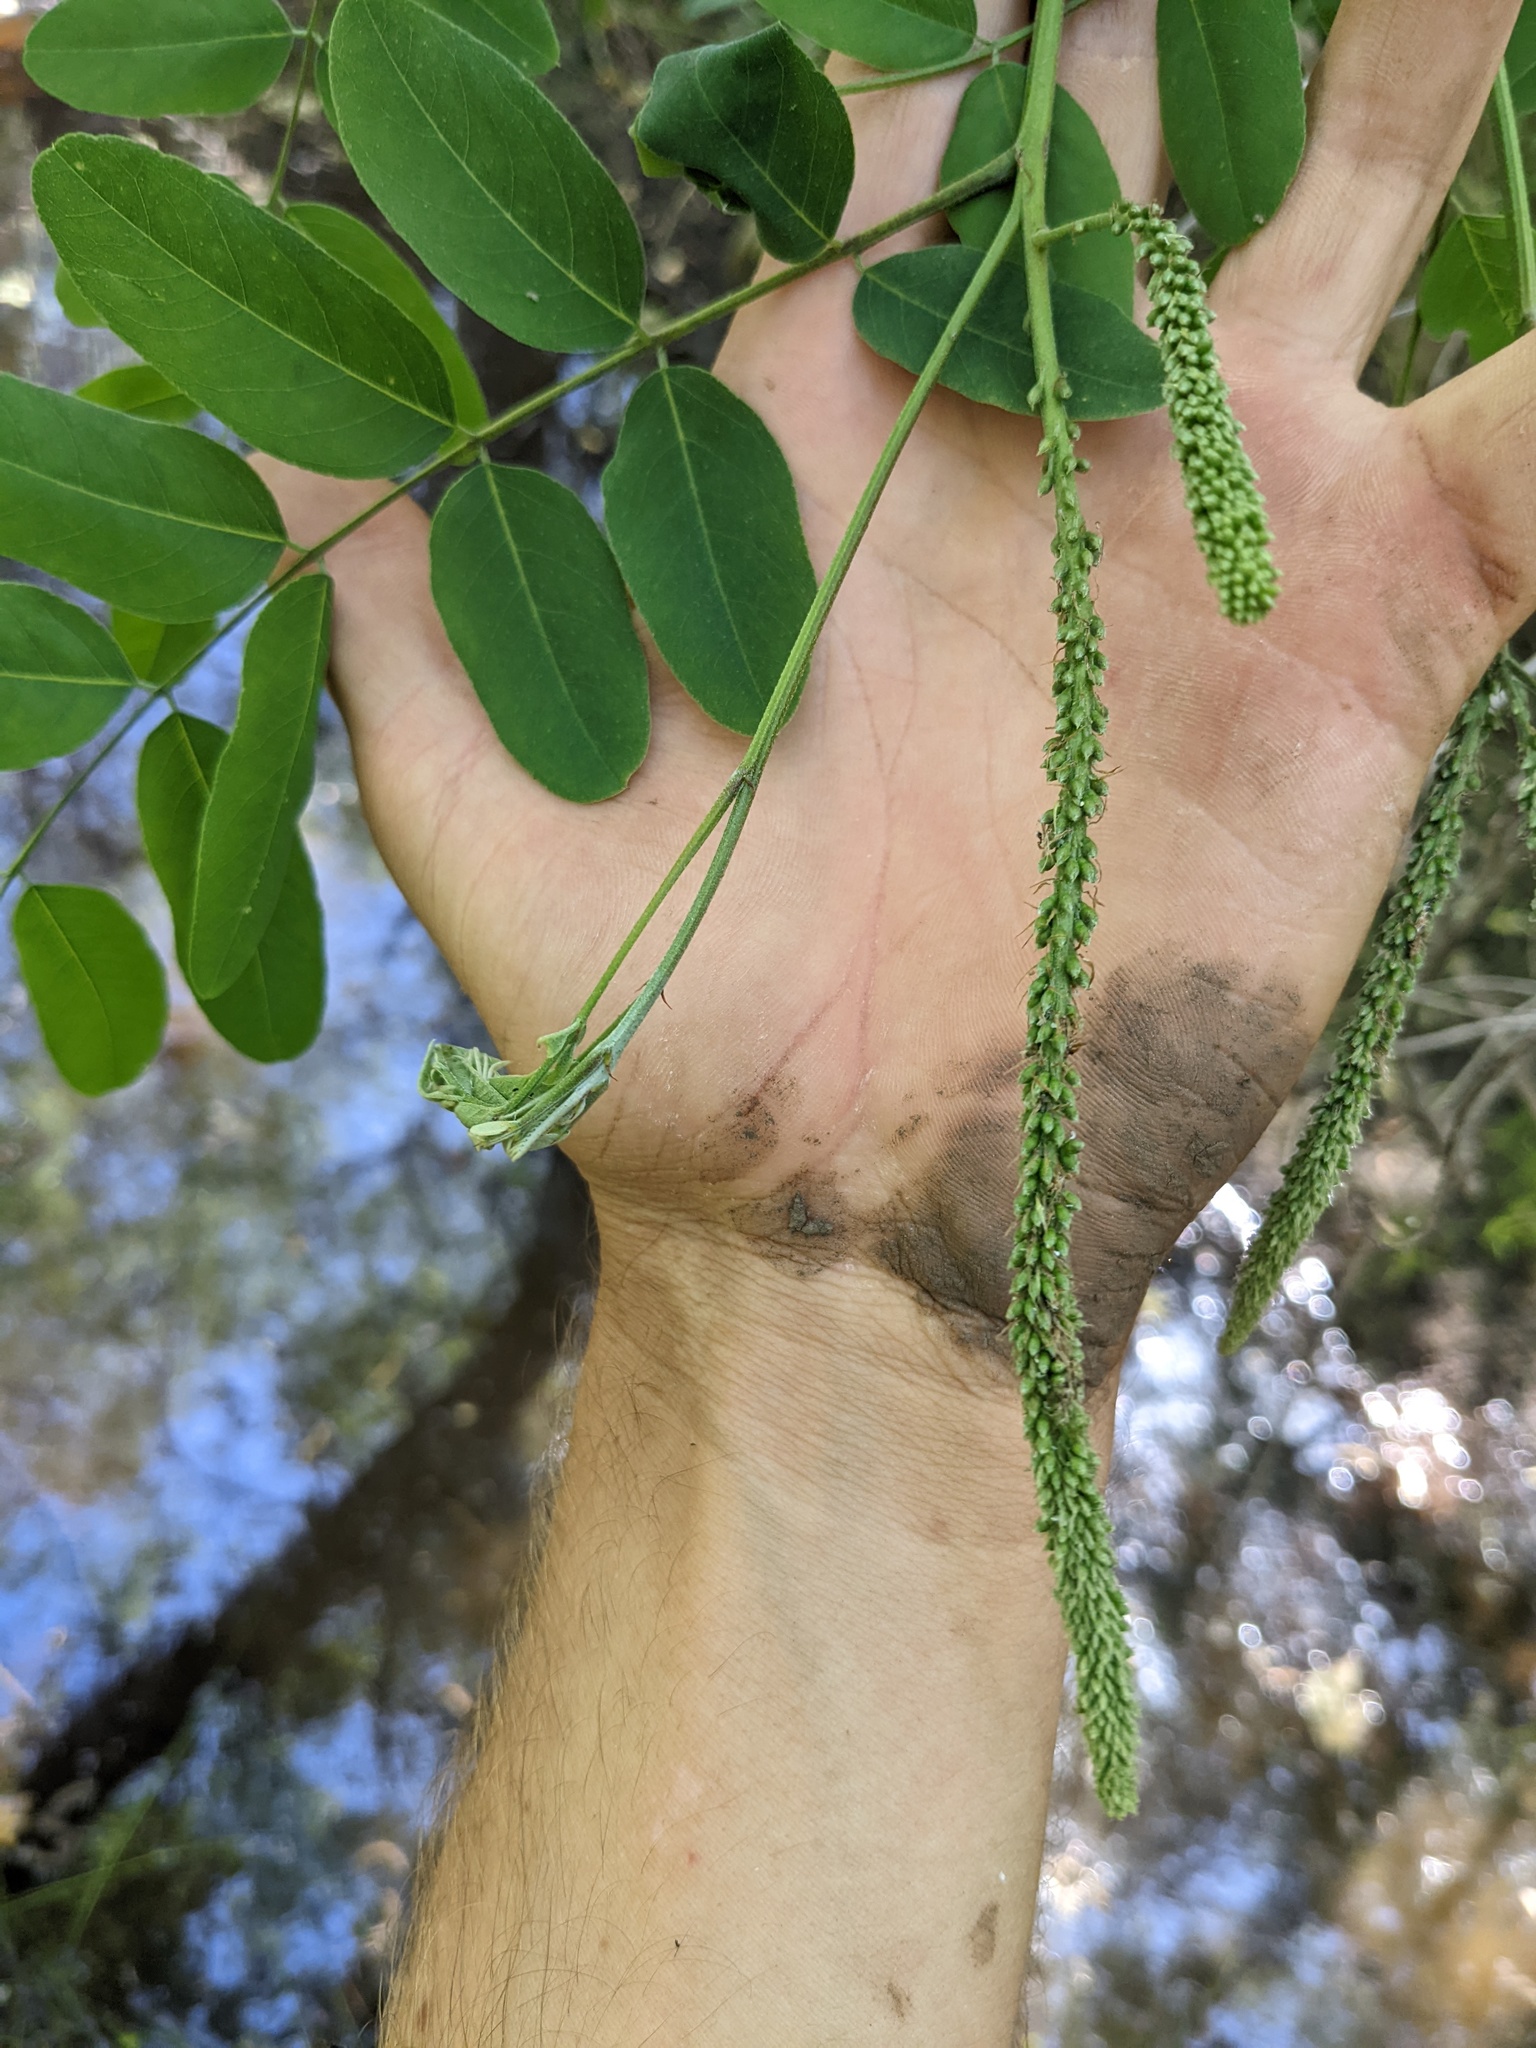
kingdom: Plantae
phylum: Tracheophyta
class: Magnoliopsida
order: Fabales
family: Fabaceae
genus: Amorpha
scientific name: Amorpha fruticosa
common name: False indigo
